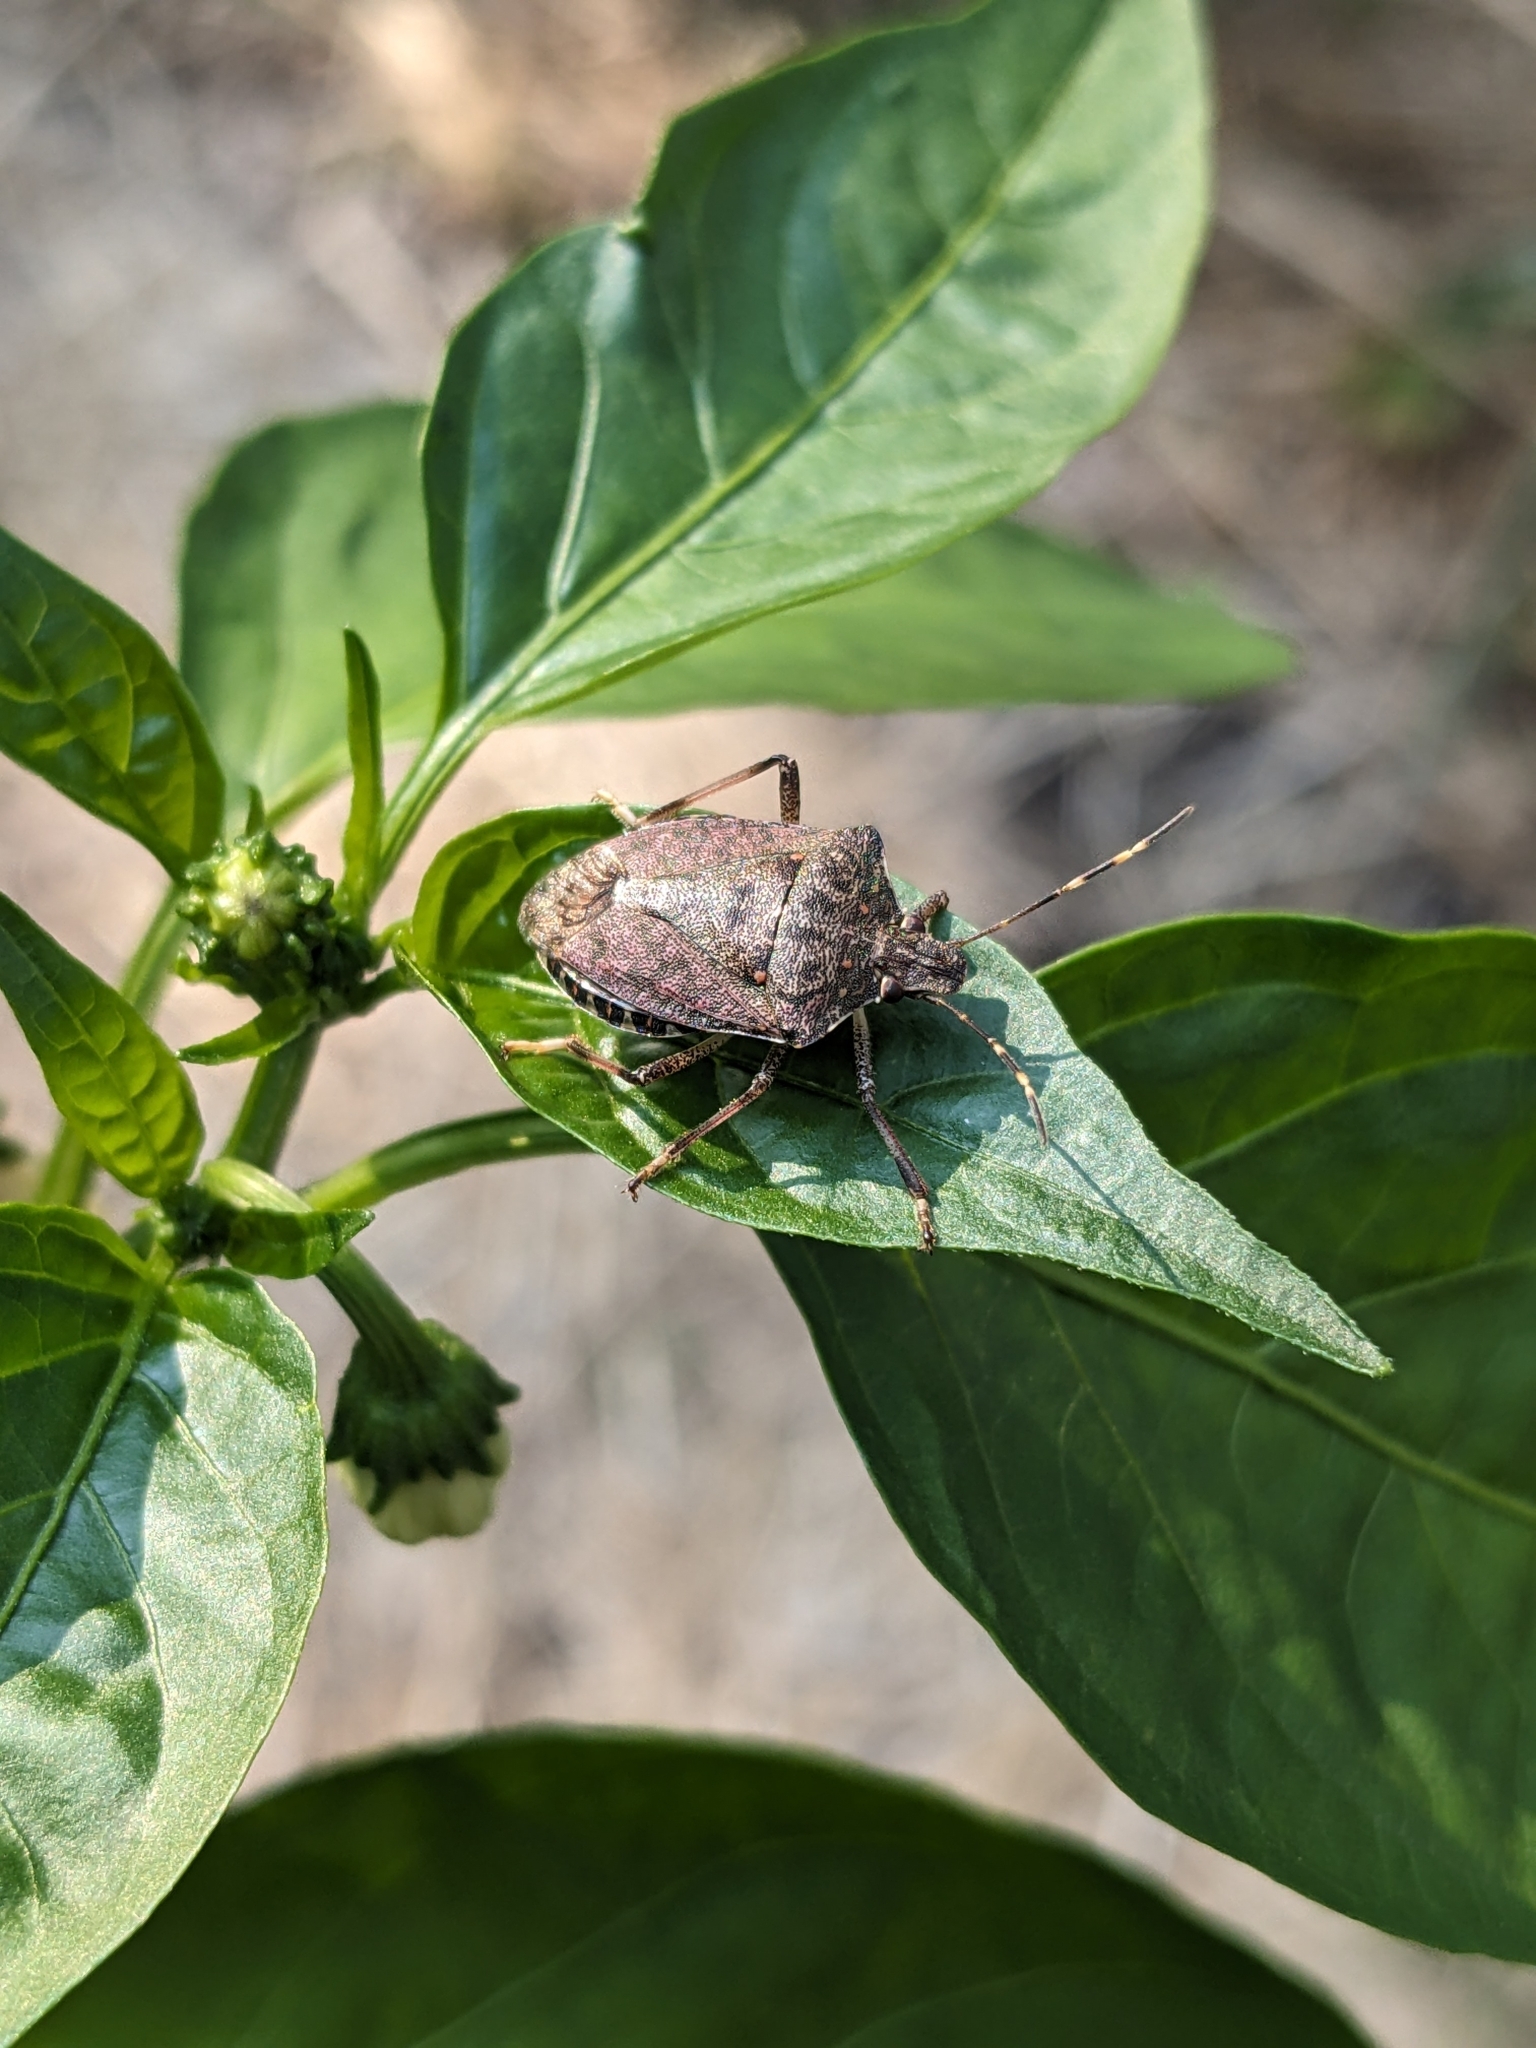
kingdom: Animalia
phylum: Arthropoda
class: Insecta
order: Hemiptera
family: Pentatomidae
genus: Halyomorpha
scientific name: Halyomorpha halys
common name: Brown marmorated stink bug
